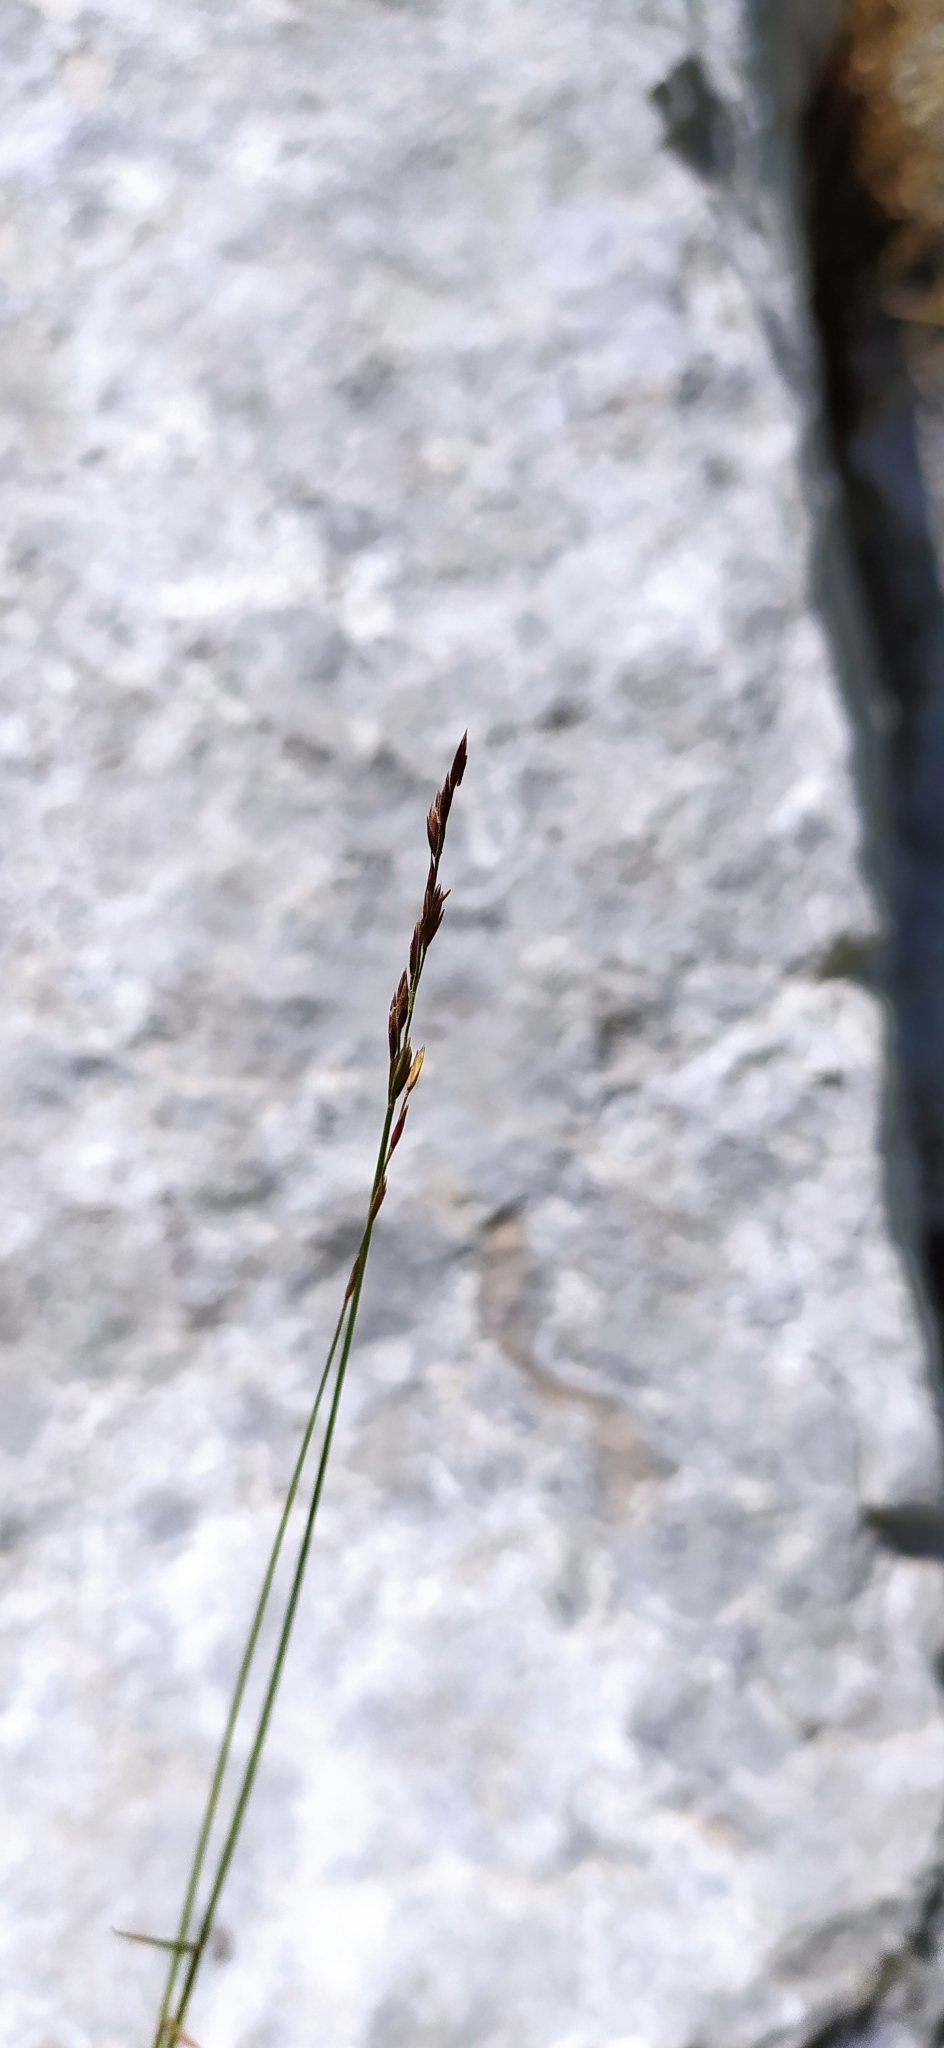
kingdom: Plantae
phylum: Tracheophyta
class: Liliopsida
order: Poales
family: Poaceae
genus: Poa
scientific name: Poa sterilis
